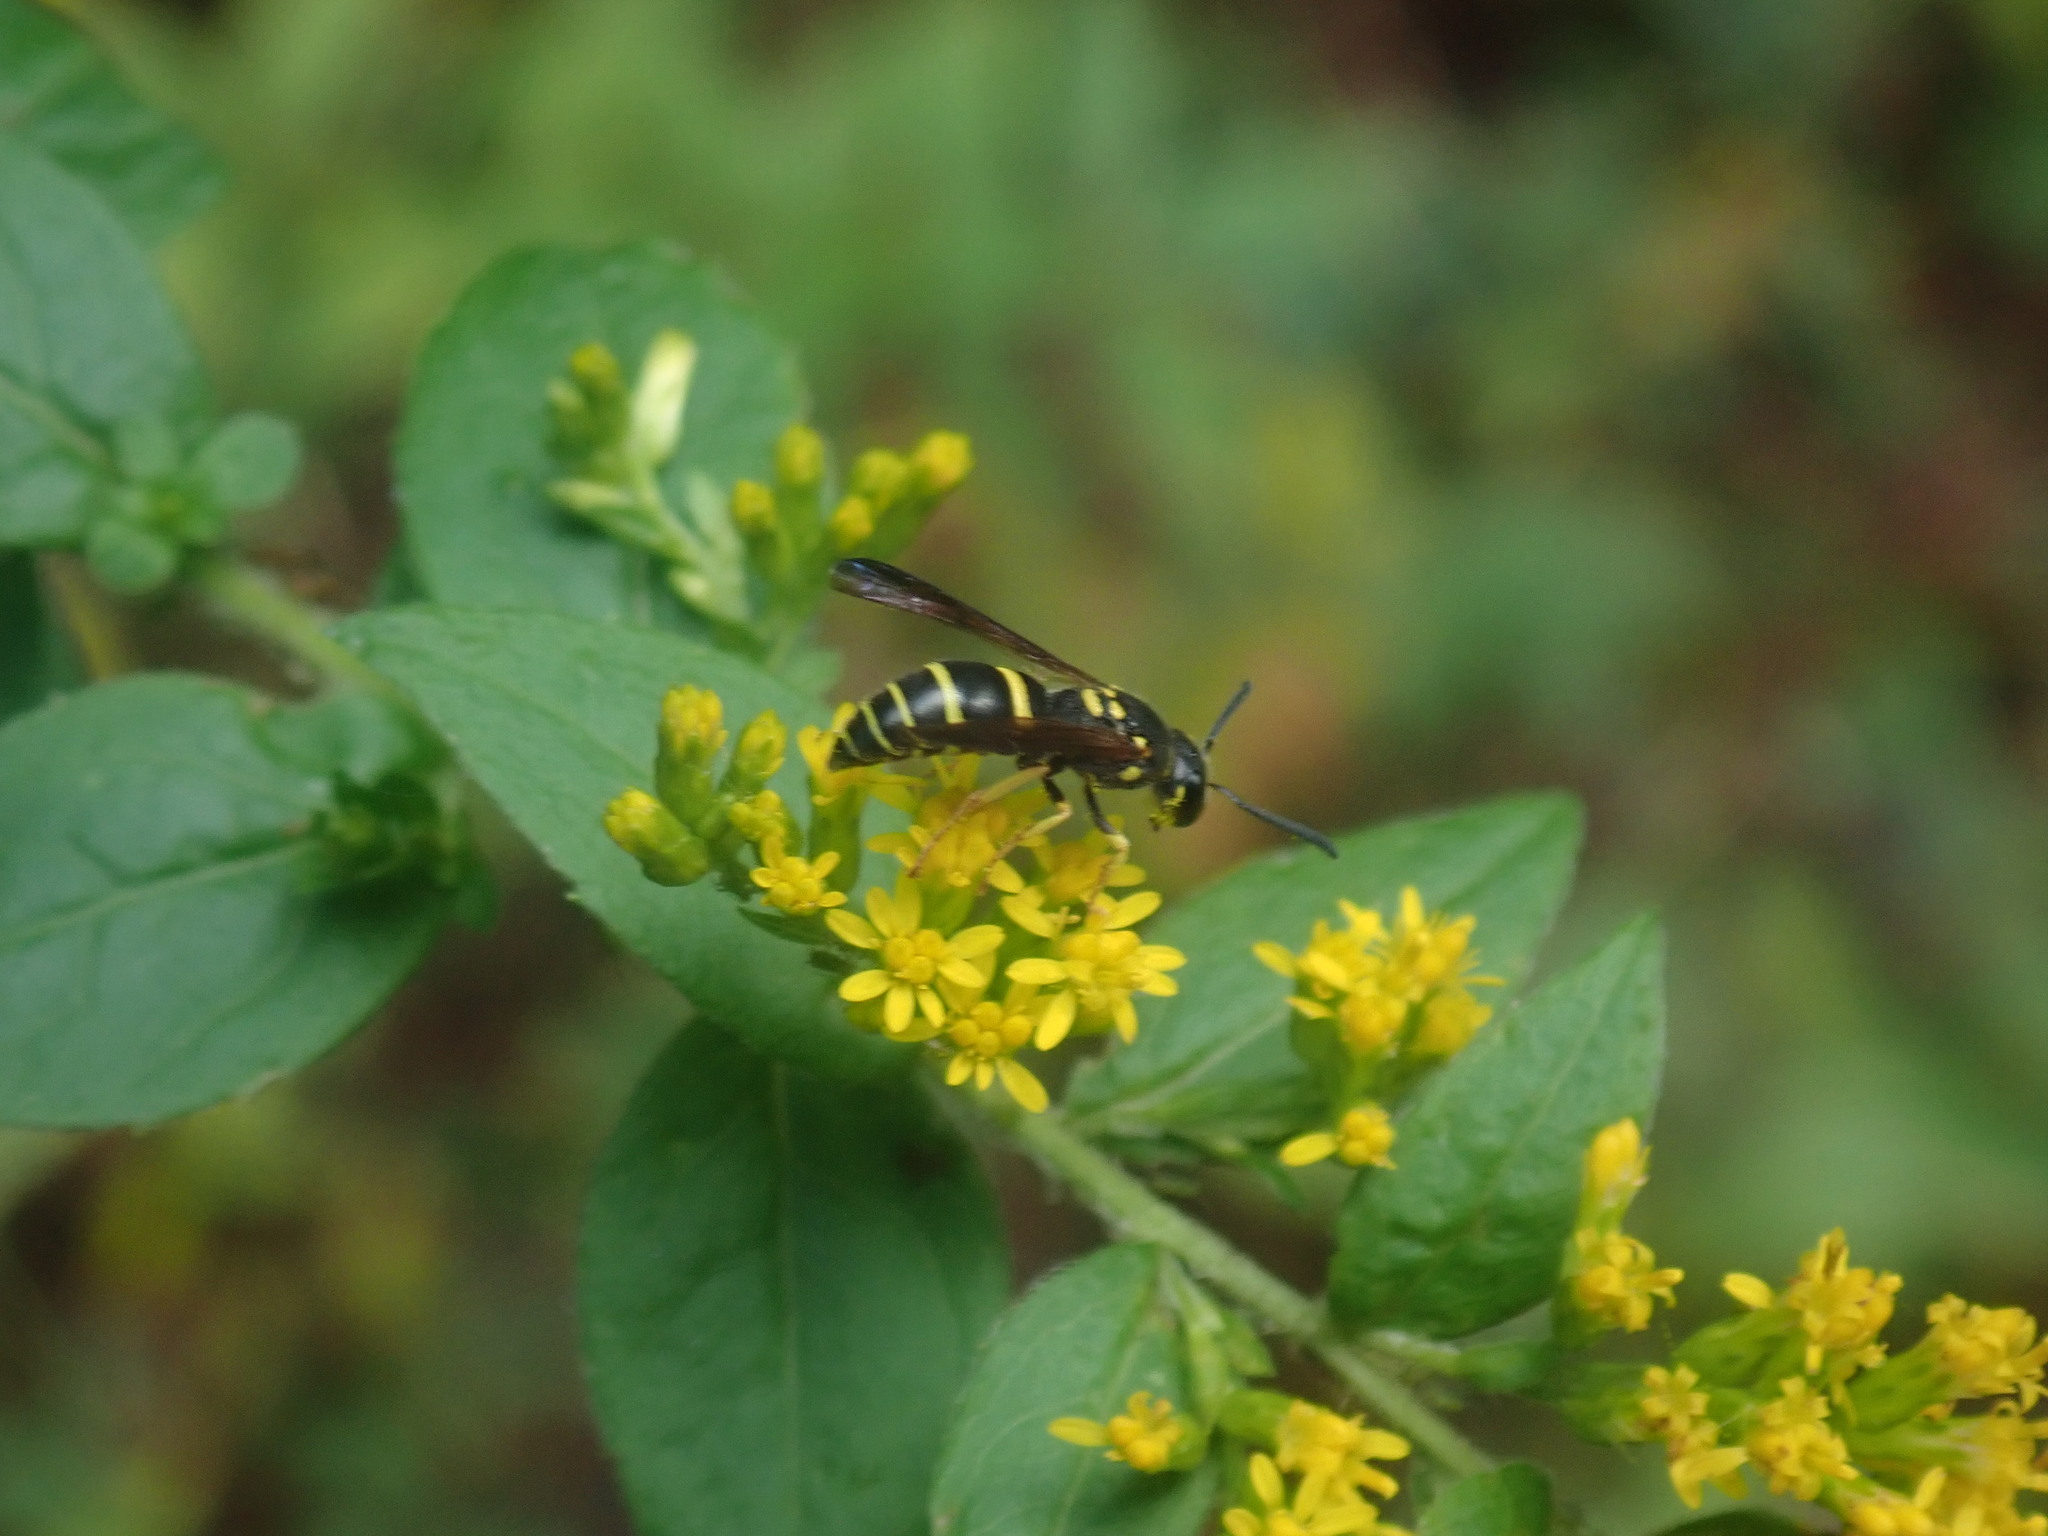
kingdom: Animalia
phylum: Arthropoda
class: Insecta
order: Hymenoptera
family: Vespidae
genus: Ancistrocerus
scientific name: Ancistrocerus adiabatus
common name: Bramble mason wasp
